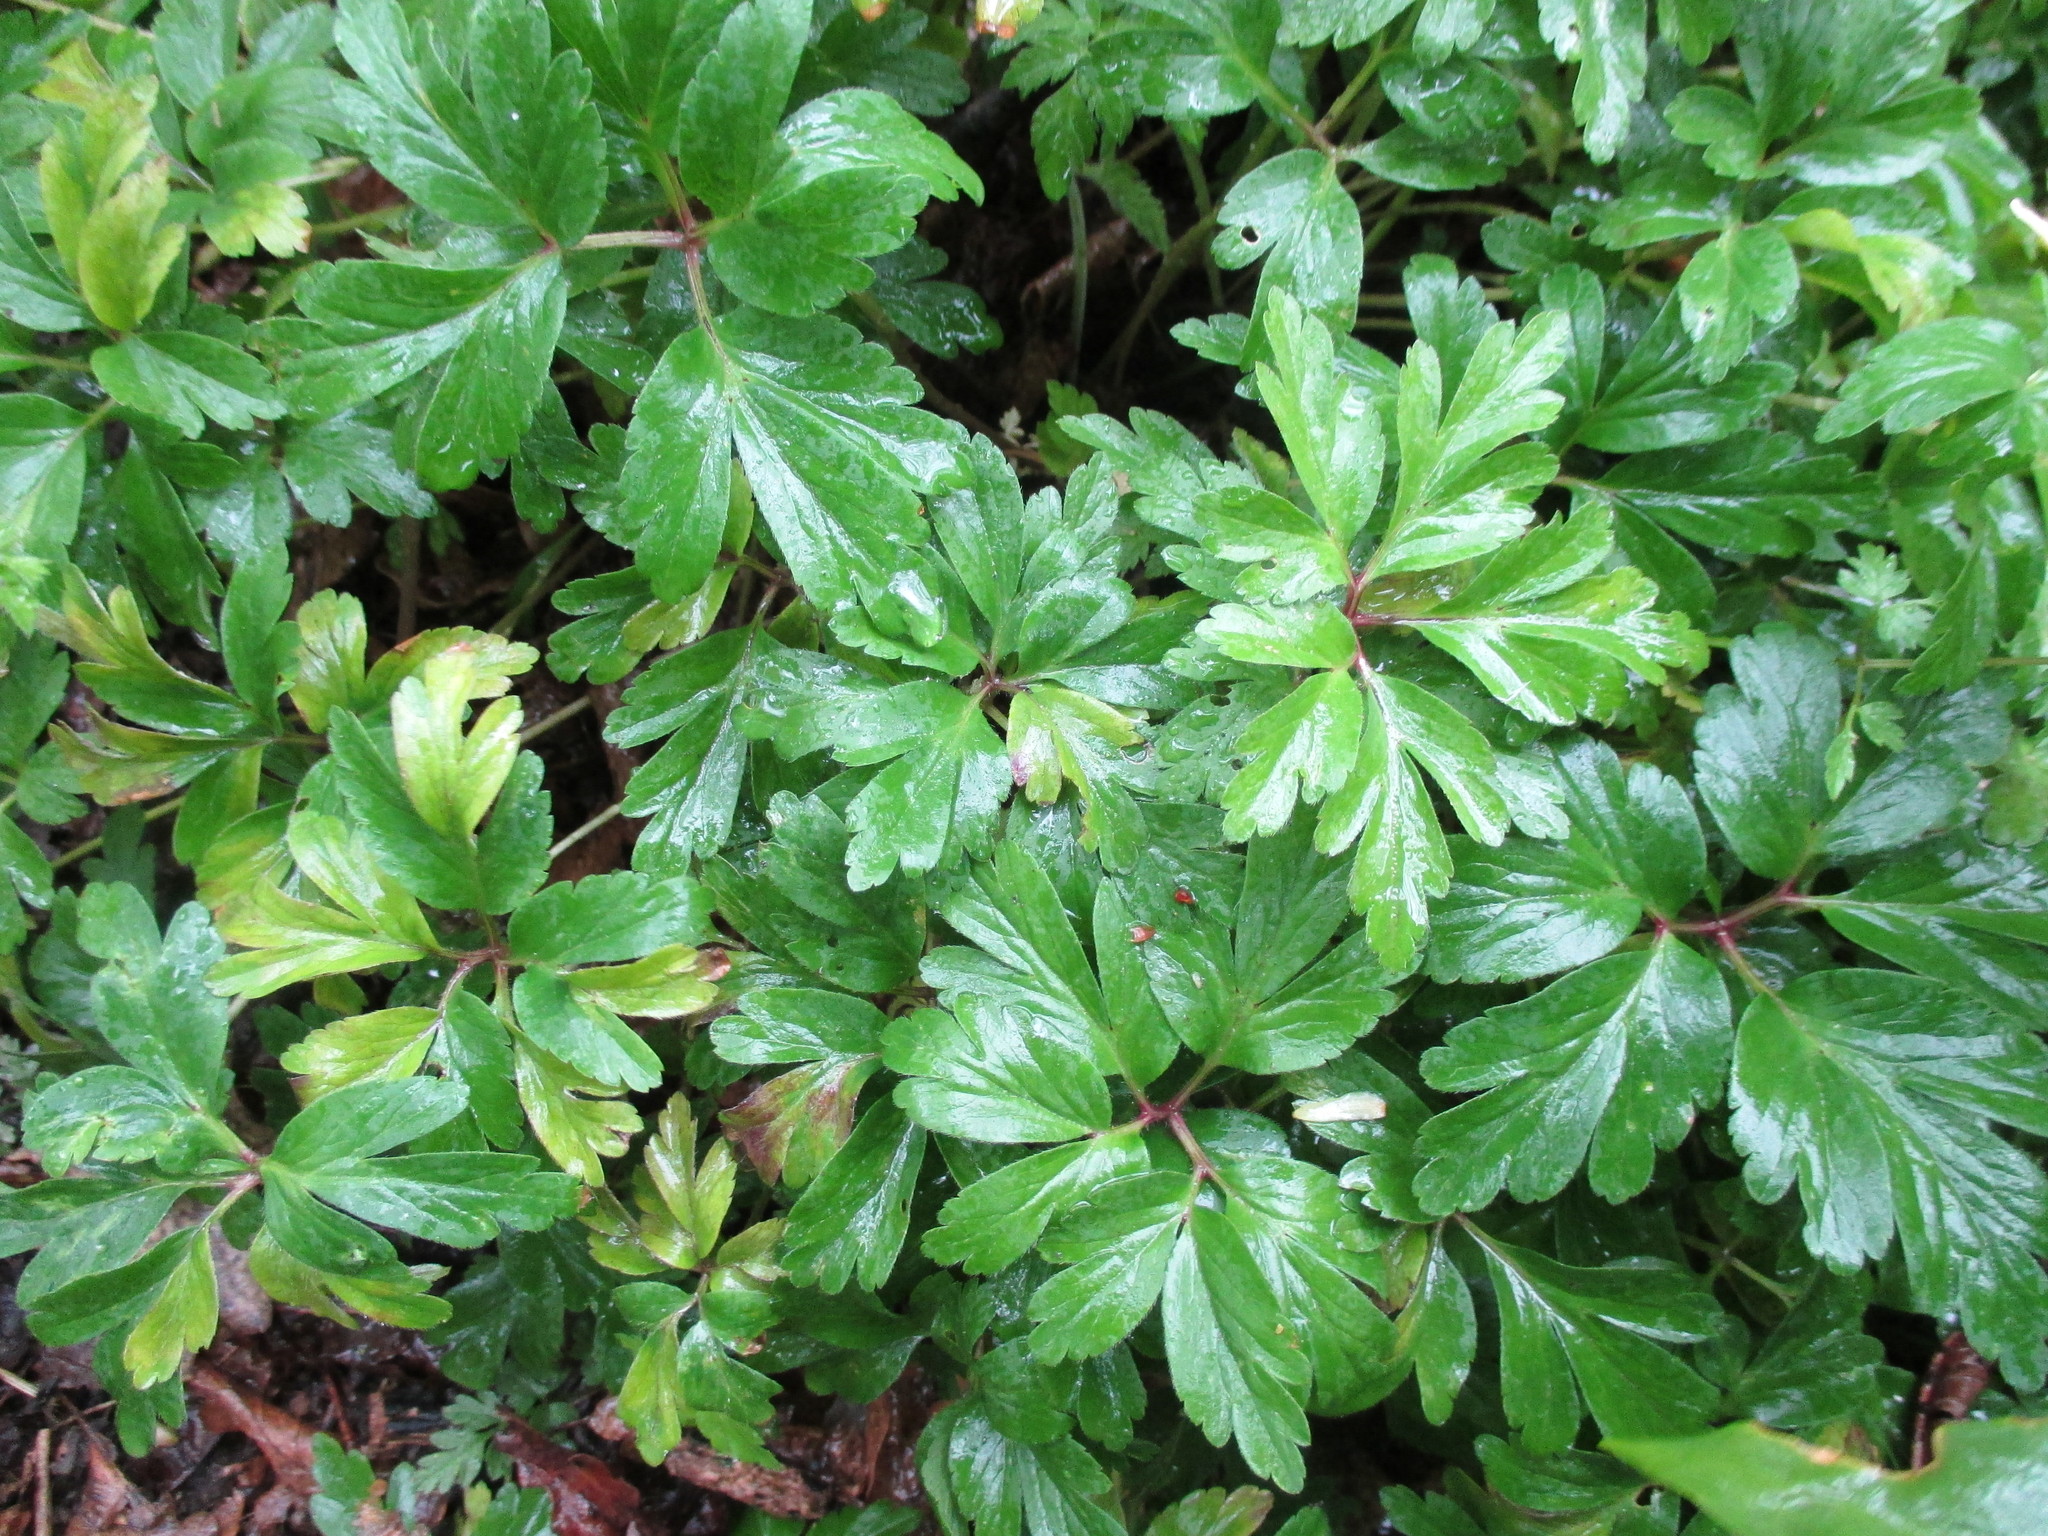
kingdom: Plantae
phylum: Tracheophyta
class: Magnoliopsida
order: Ranunculales
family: Ranunculaceae
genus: Anemone
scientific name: Anemone nemorosa
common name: Wood anemone
